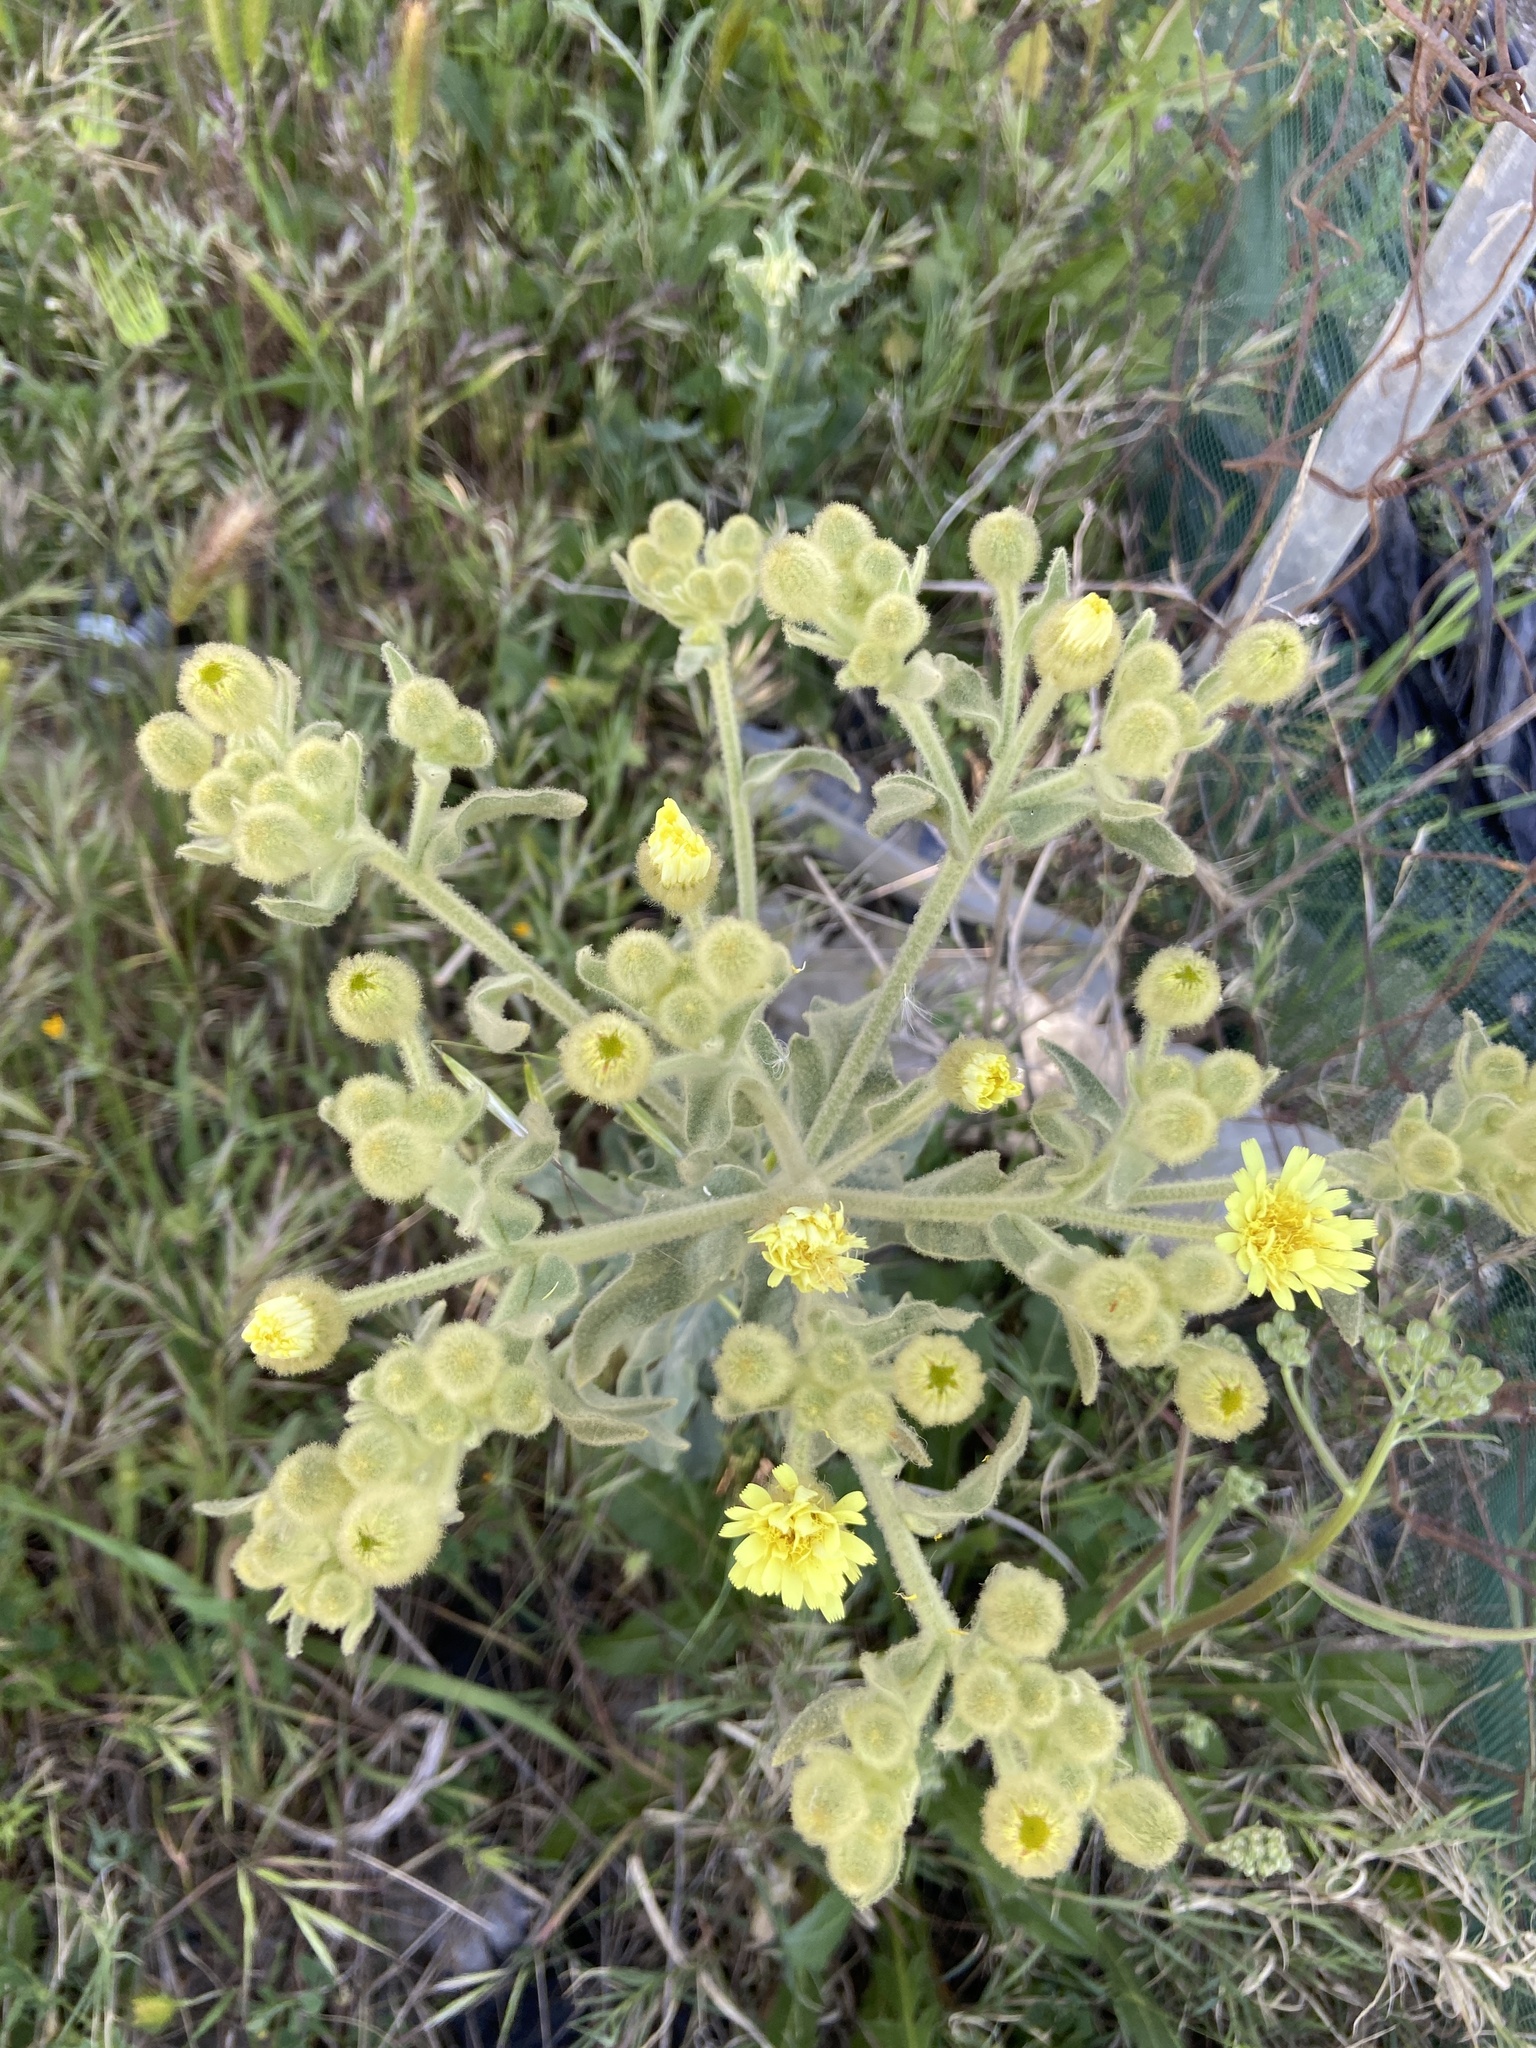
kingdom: Plantae
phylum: Tracheophyta
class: Magnoliopsida
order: Asterales
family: Asteraceae
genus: Andryala
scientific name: Andryala integrifolia
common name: Common andryala
